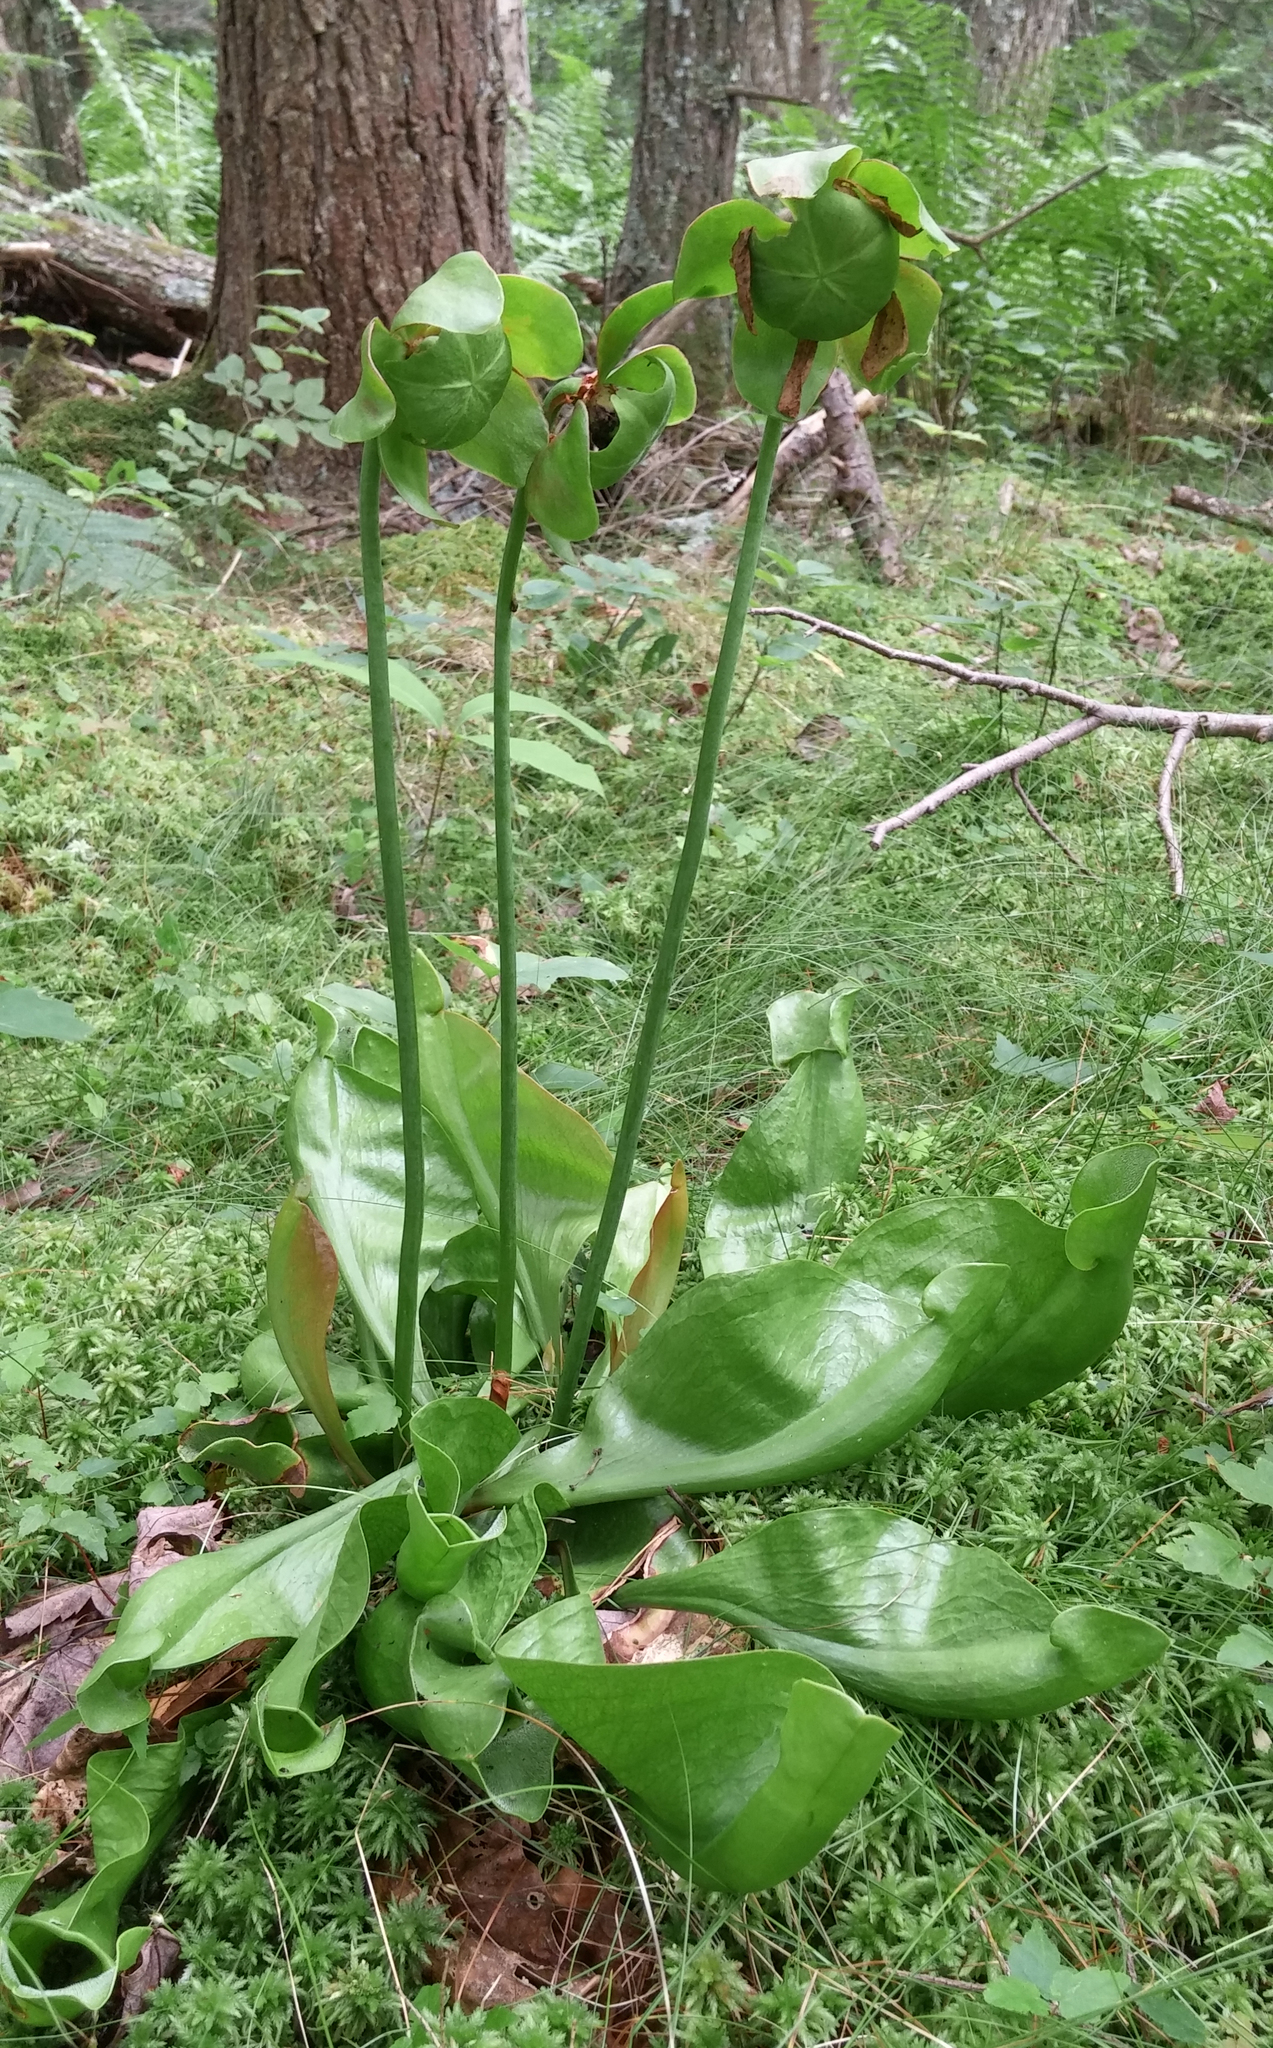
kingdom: Plantae
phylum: Tracheophyta
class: Magnoliopsida
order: Ericales
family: Sarraceniaceae
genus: Sarracenia
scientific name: Sarracenia purpurea
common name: Pitcherplant
